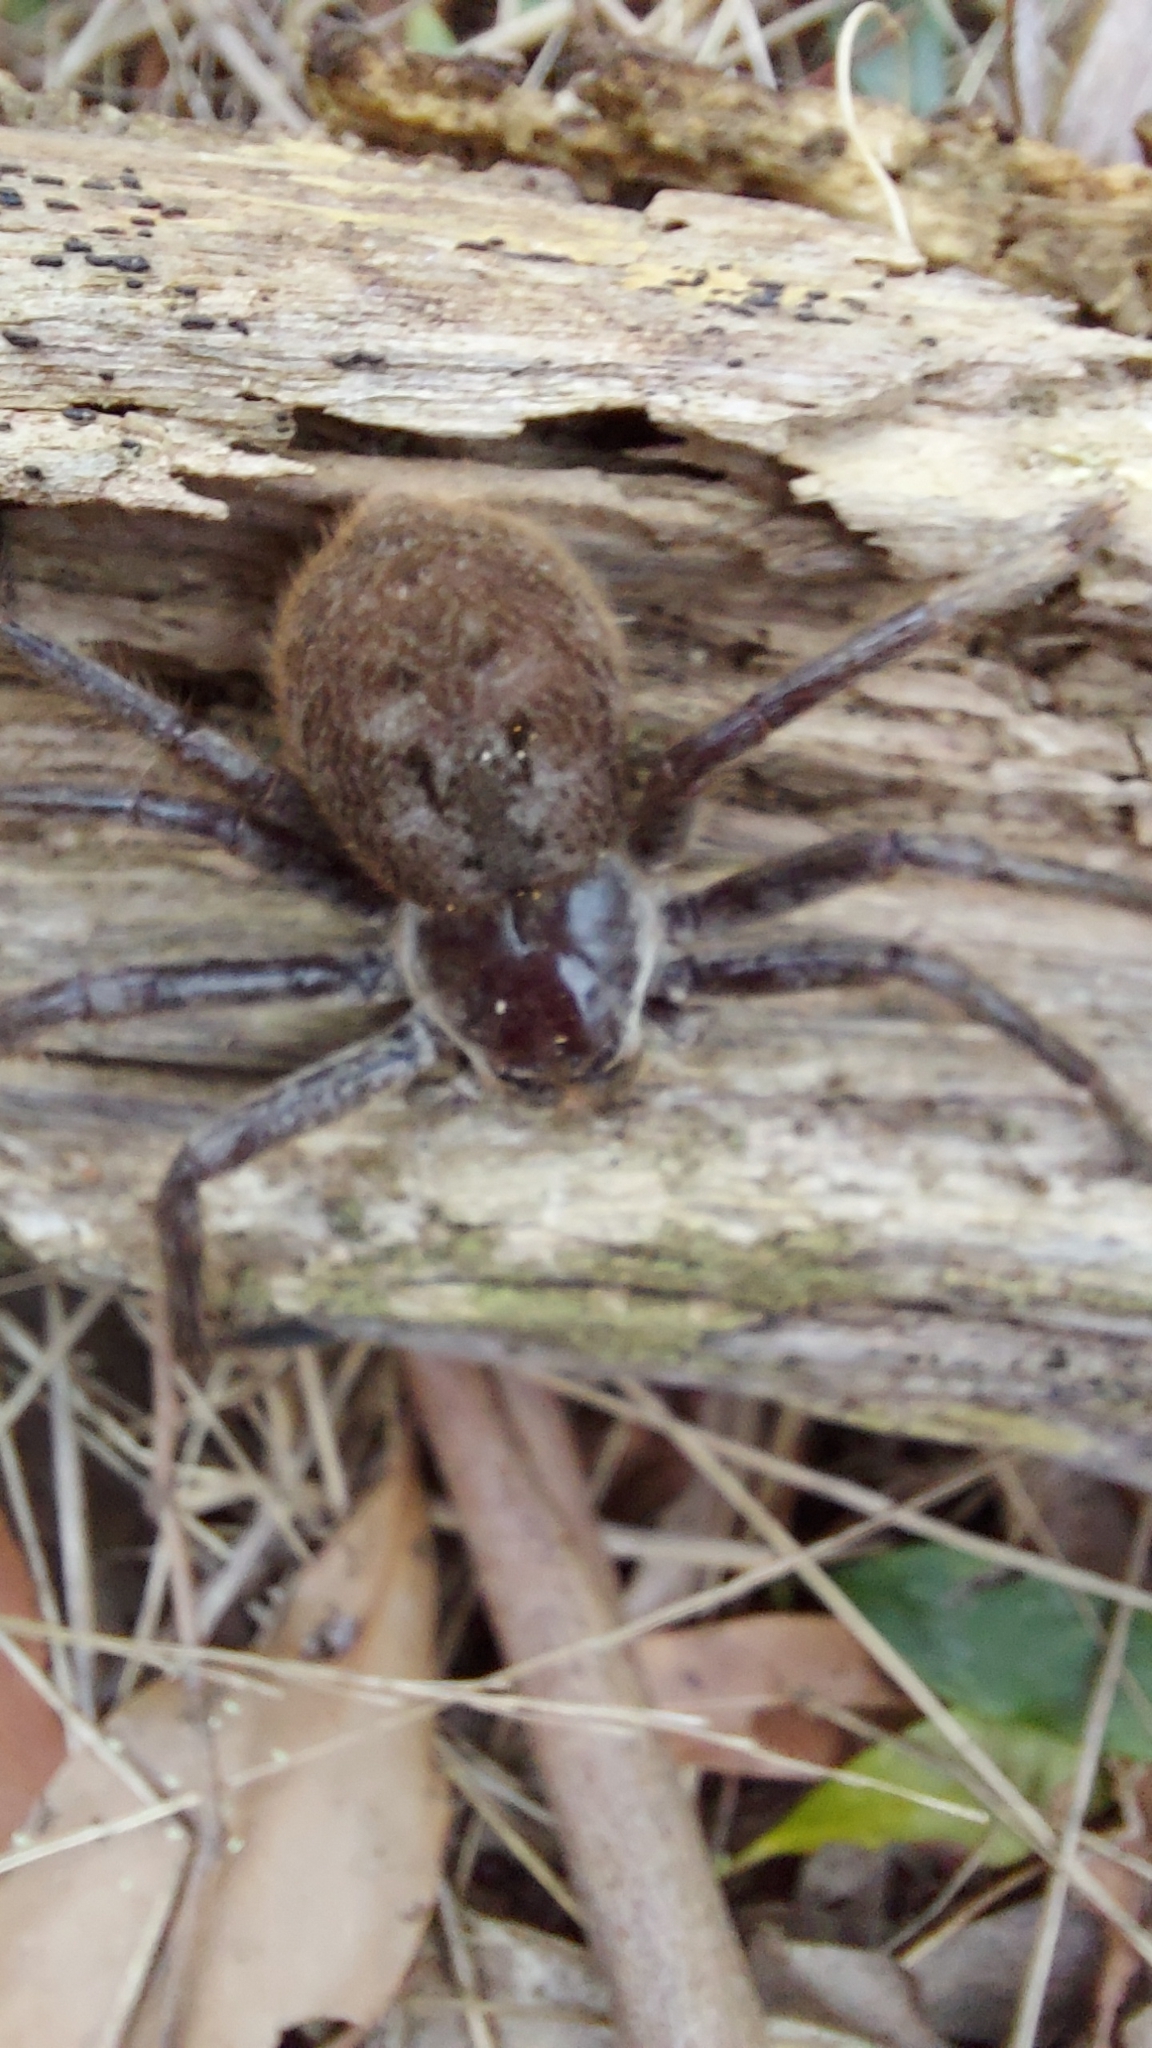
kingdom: Animalia
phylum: Arthropoda
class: Arachnida
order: Araneae
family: Sparassidae
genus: Isopeda
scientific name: Isopeda montana
